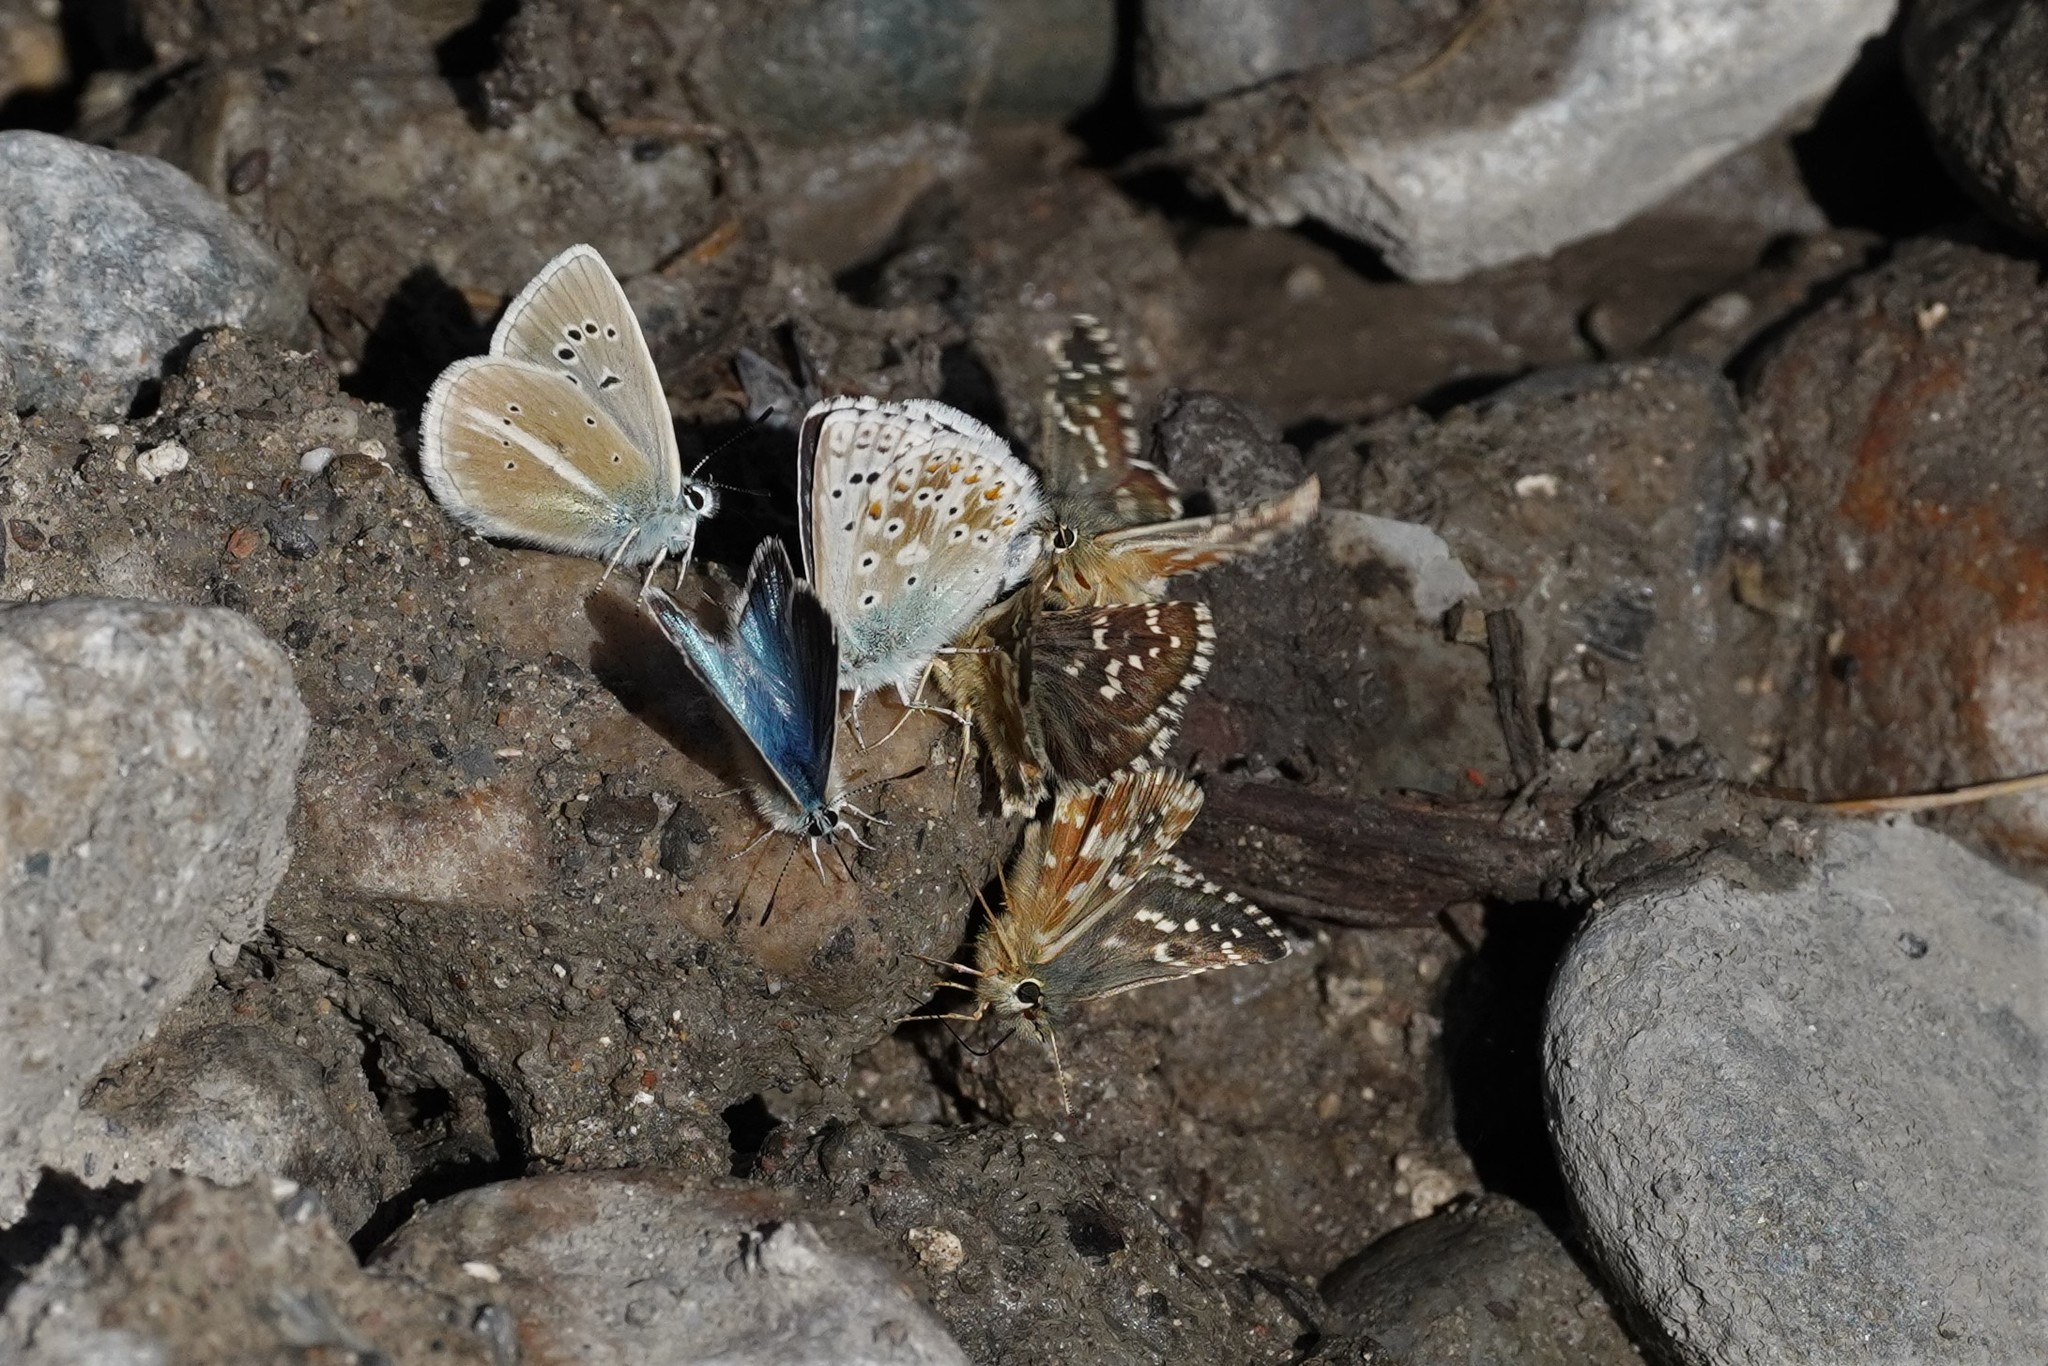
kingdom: Animalia
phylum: Arthropoda
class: Insecta
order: Lepidoptera
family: Hesperiidae
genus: Pyrgus
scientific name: Pyrgus carlinae
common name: Carline skipper
